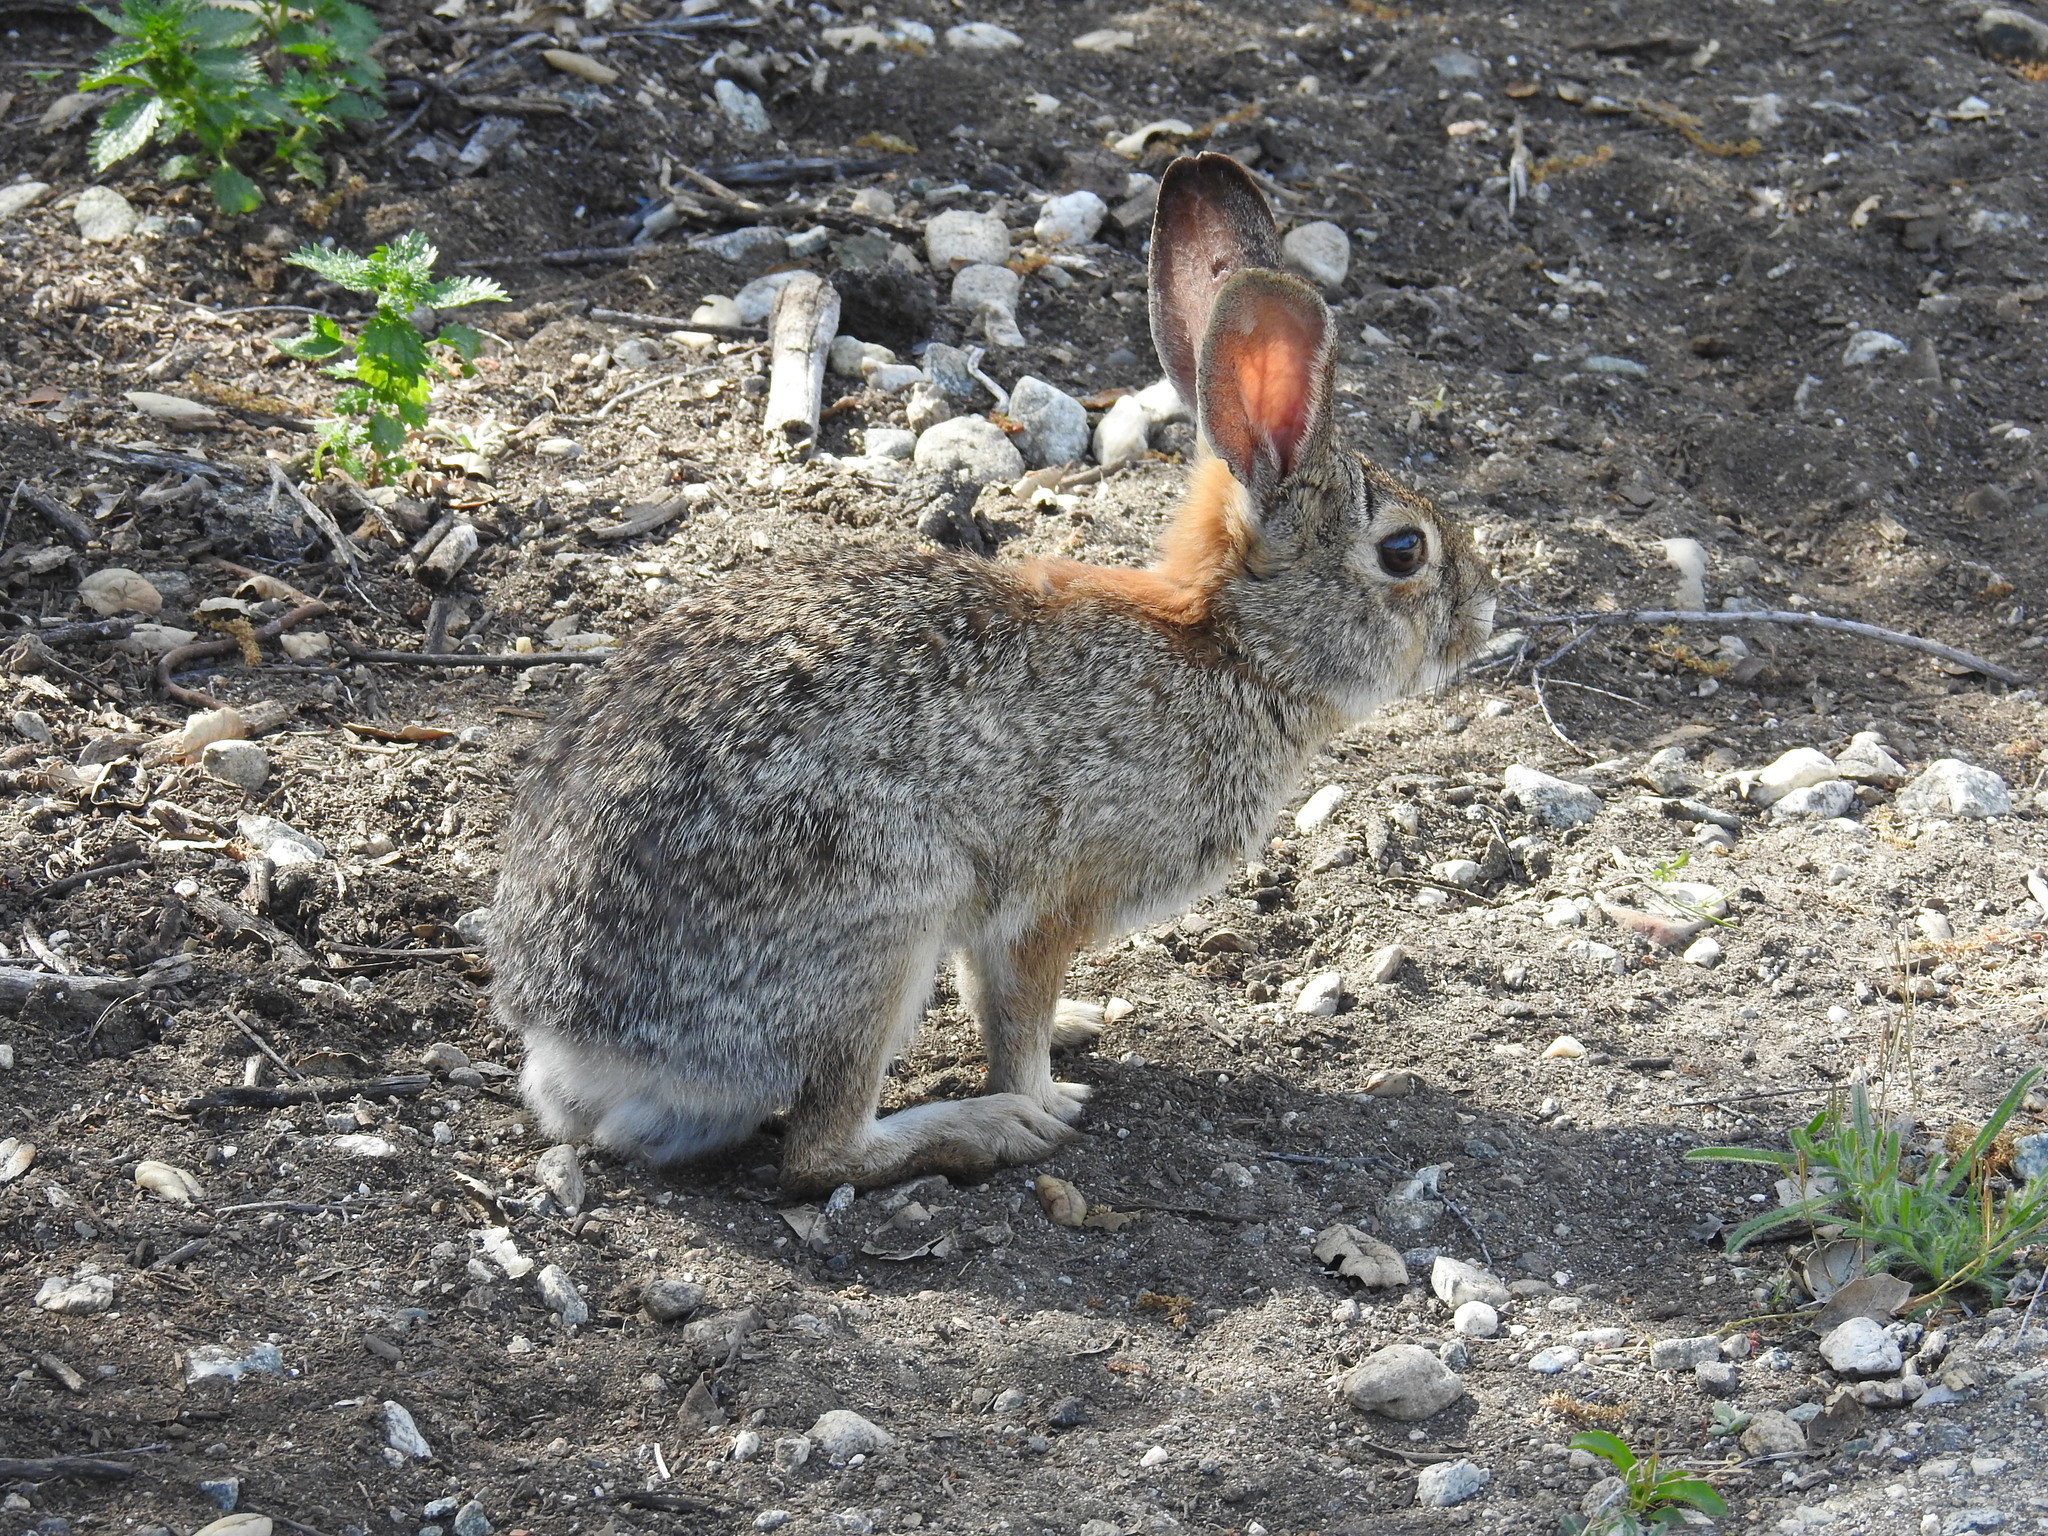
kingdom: Animalia
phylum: Chordata
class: Mammalia
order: Lagomorpha
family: Leporidae
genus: Sylvilagus
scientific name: Sylvilagus audubonii
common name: Desert cottontail
